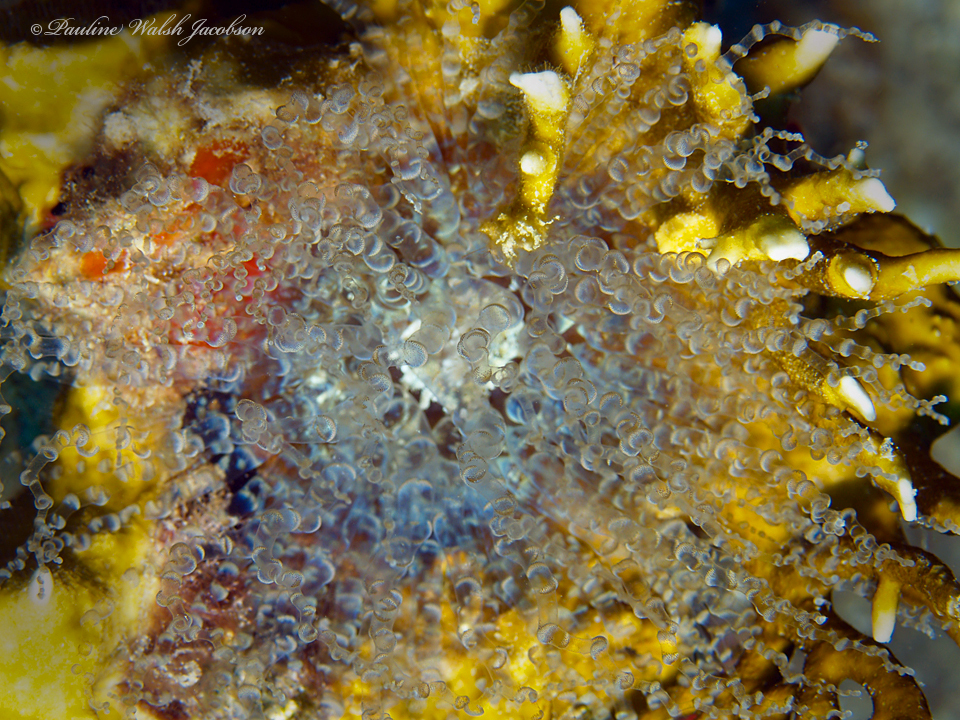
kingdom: Animalia
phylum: Cnidaria
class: Anthozoa
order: Actiniaria
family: Aiptasiidae
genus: Bartholomea
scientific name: Bartholomea annulata
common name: Corkscrew anemone
